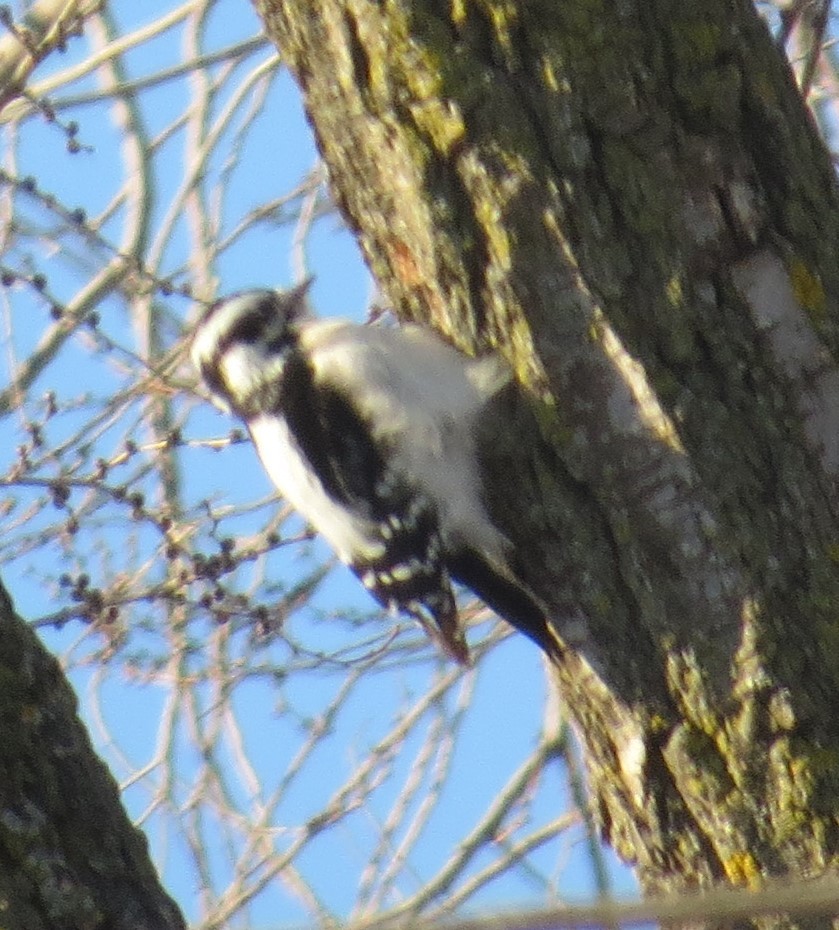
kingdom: Animalia
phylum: Chordata
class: Aves
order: Piciformes
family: Picidae
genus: Dryobates
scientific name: Dryobates pubescens
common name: Downy woodpecker
